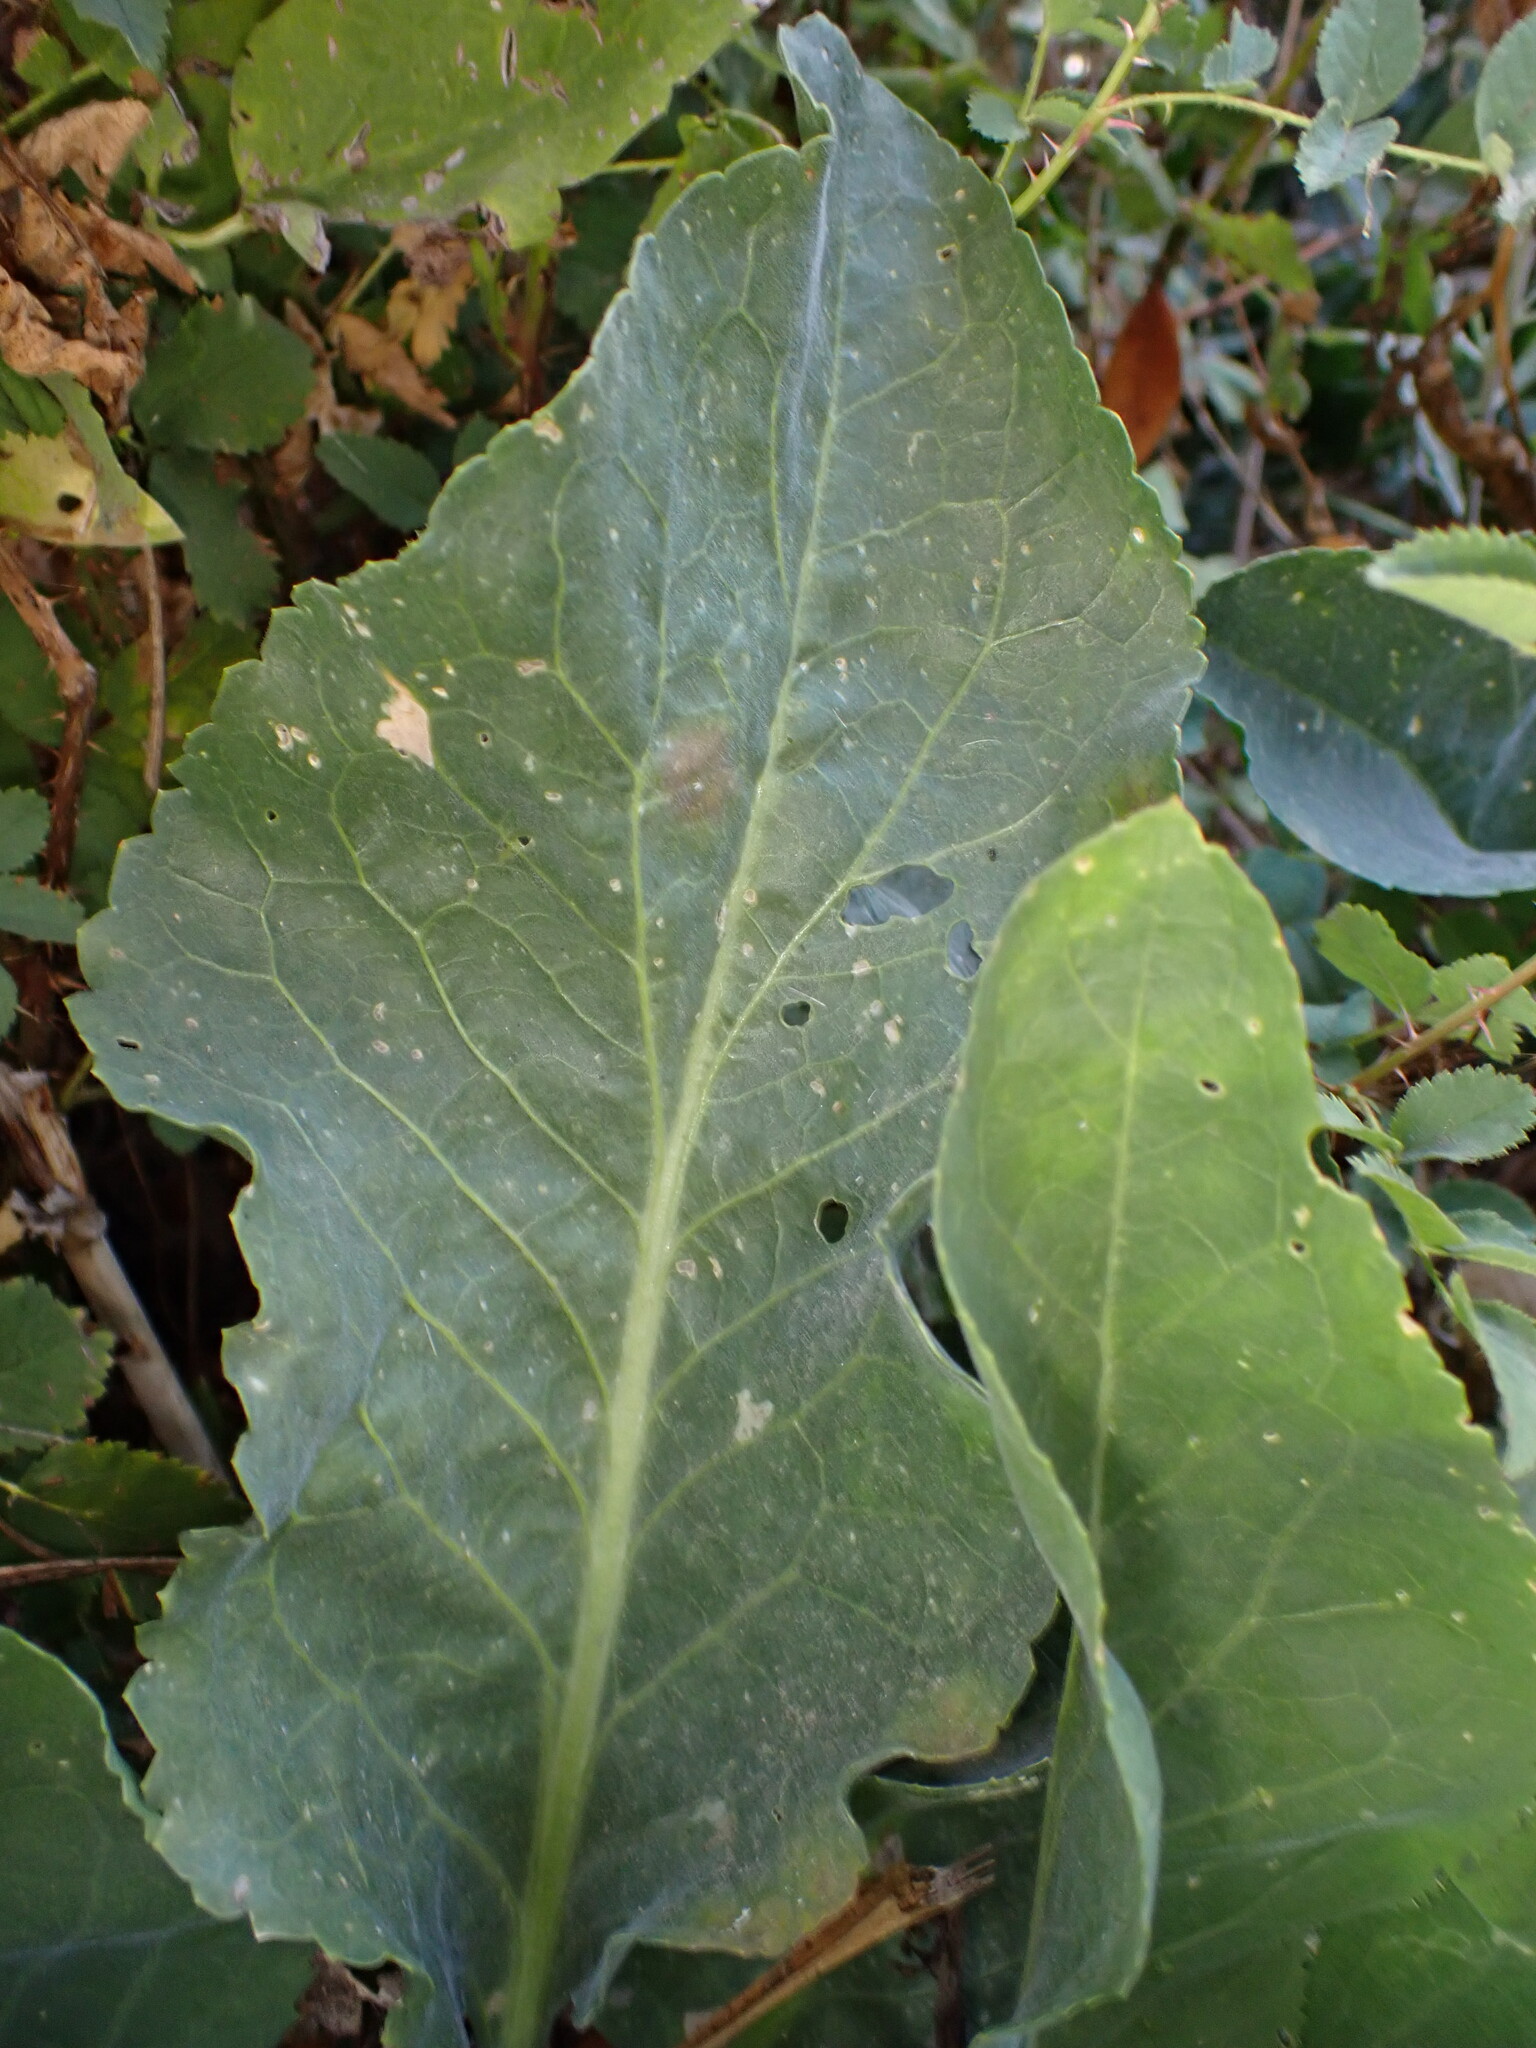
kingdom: Plantae
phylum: Tracheophyta
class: Magnoliopsida
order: Brassicales
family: Brassicaceae
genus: Lepidium
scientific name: Lepidium latifolium
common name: Dittander
